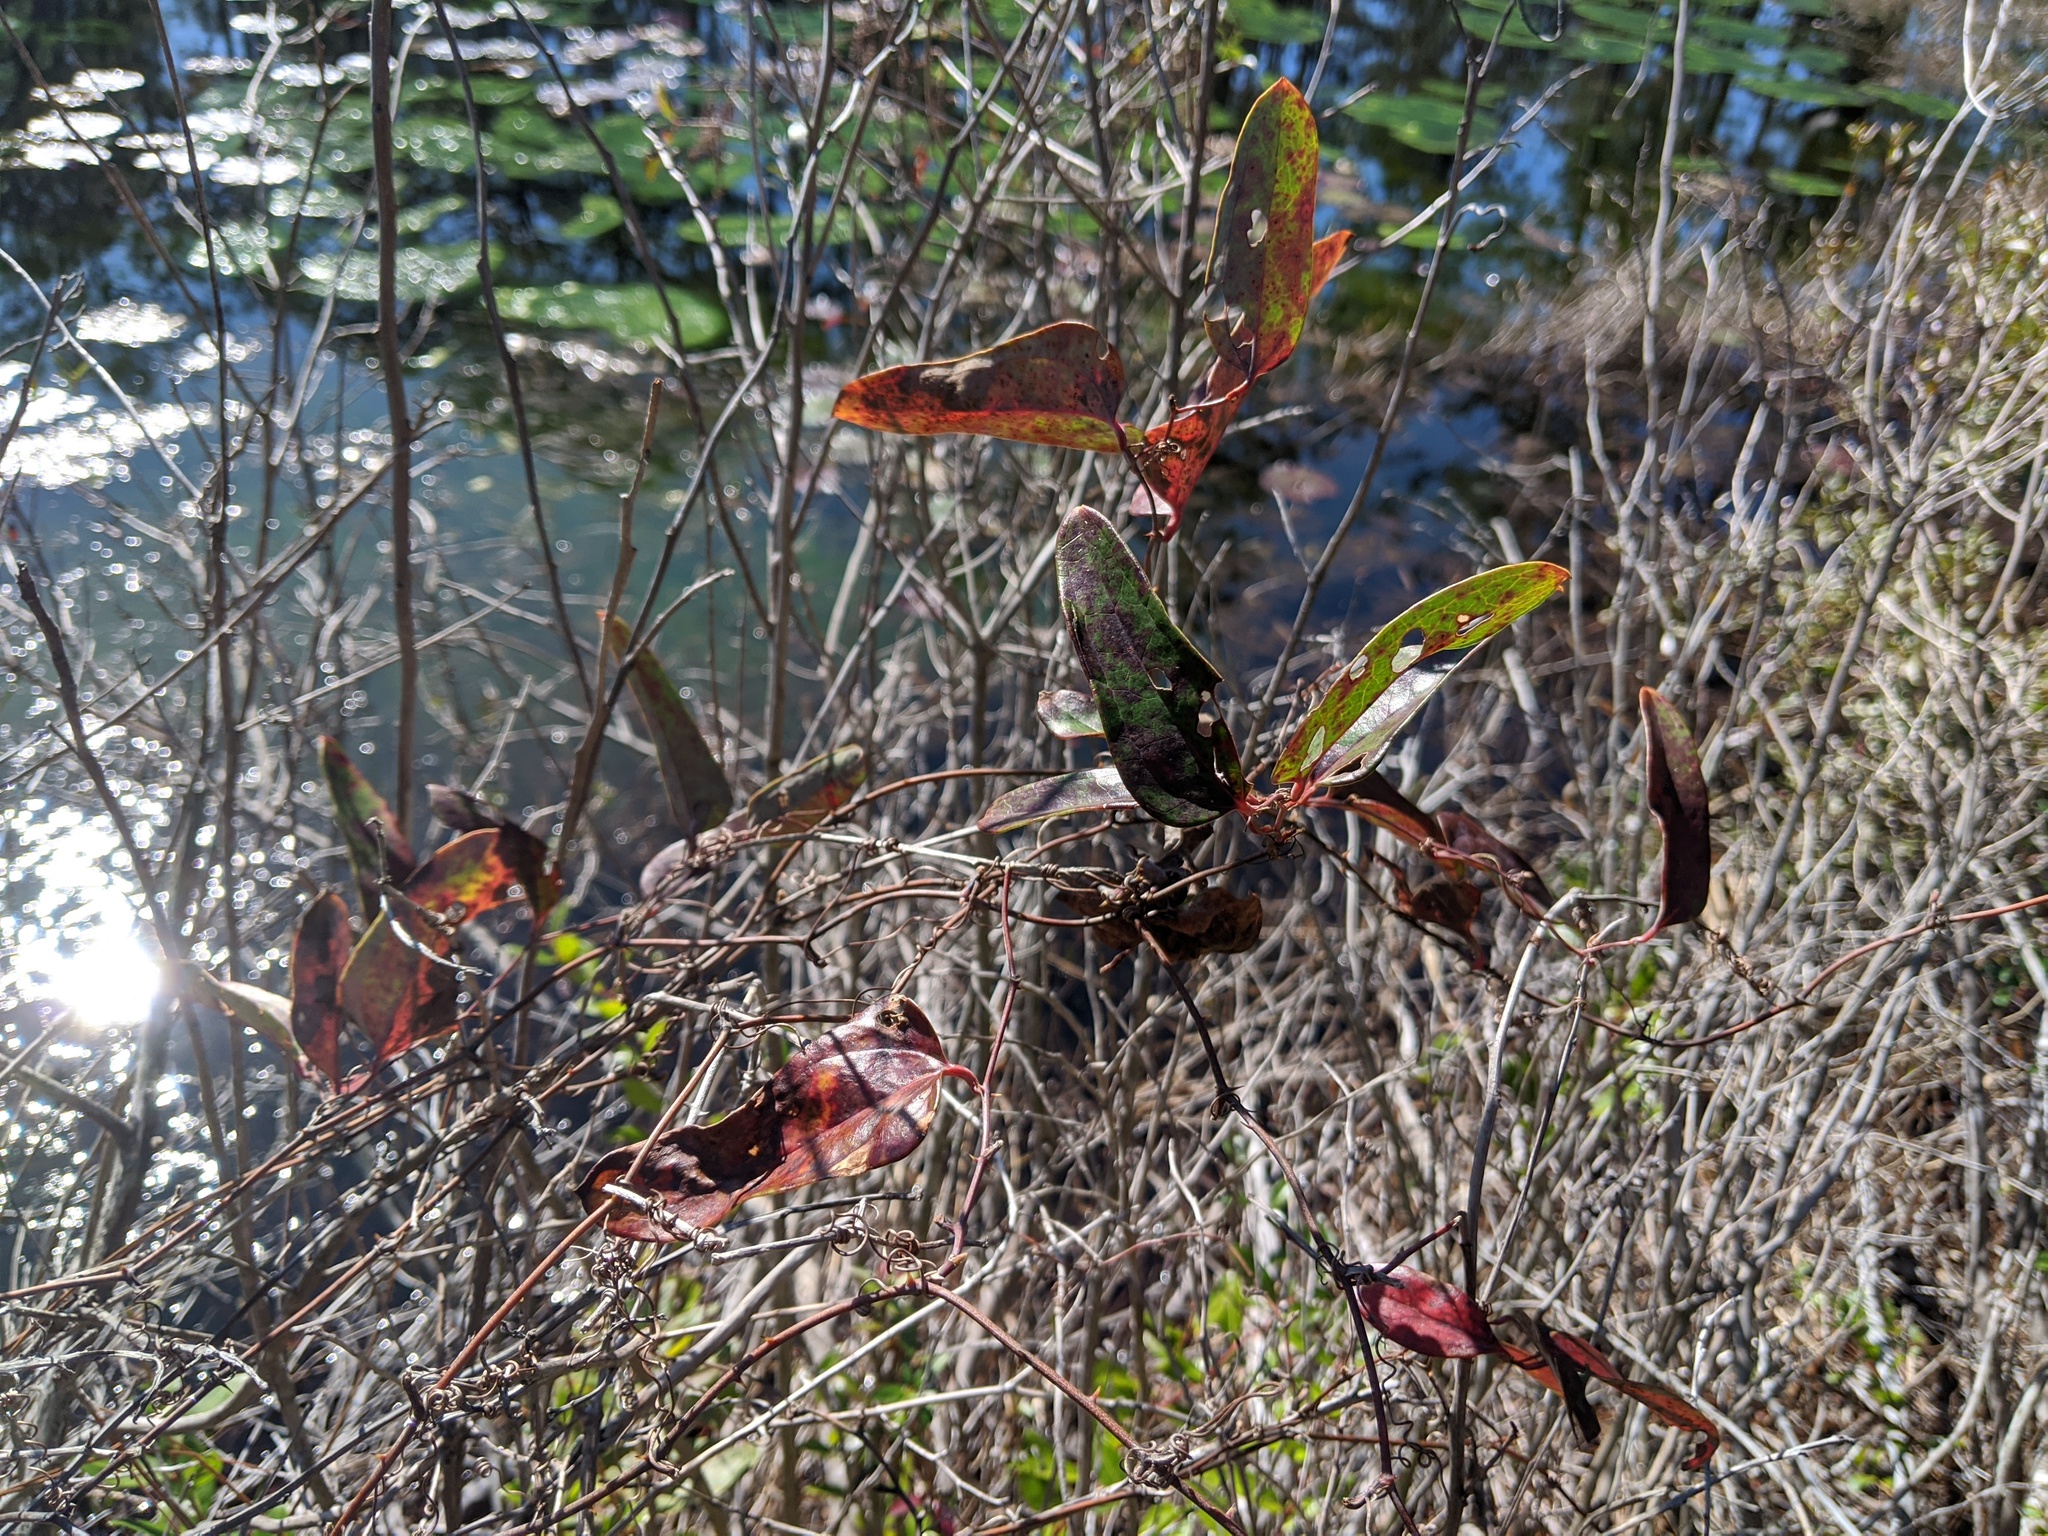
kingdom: Plantae
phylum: Tracheophyta
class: Liliopsida
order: Liliales
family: Smilacaceae
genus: Smilax
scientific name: Smilax glauca
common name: Cat greenbrier
